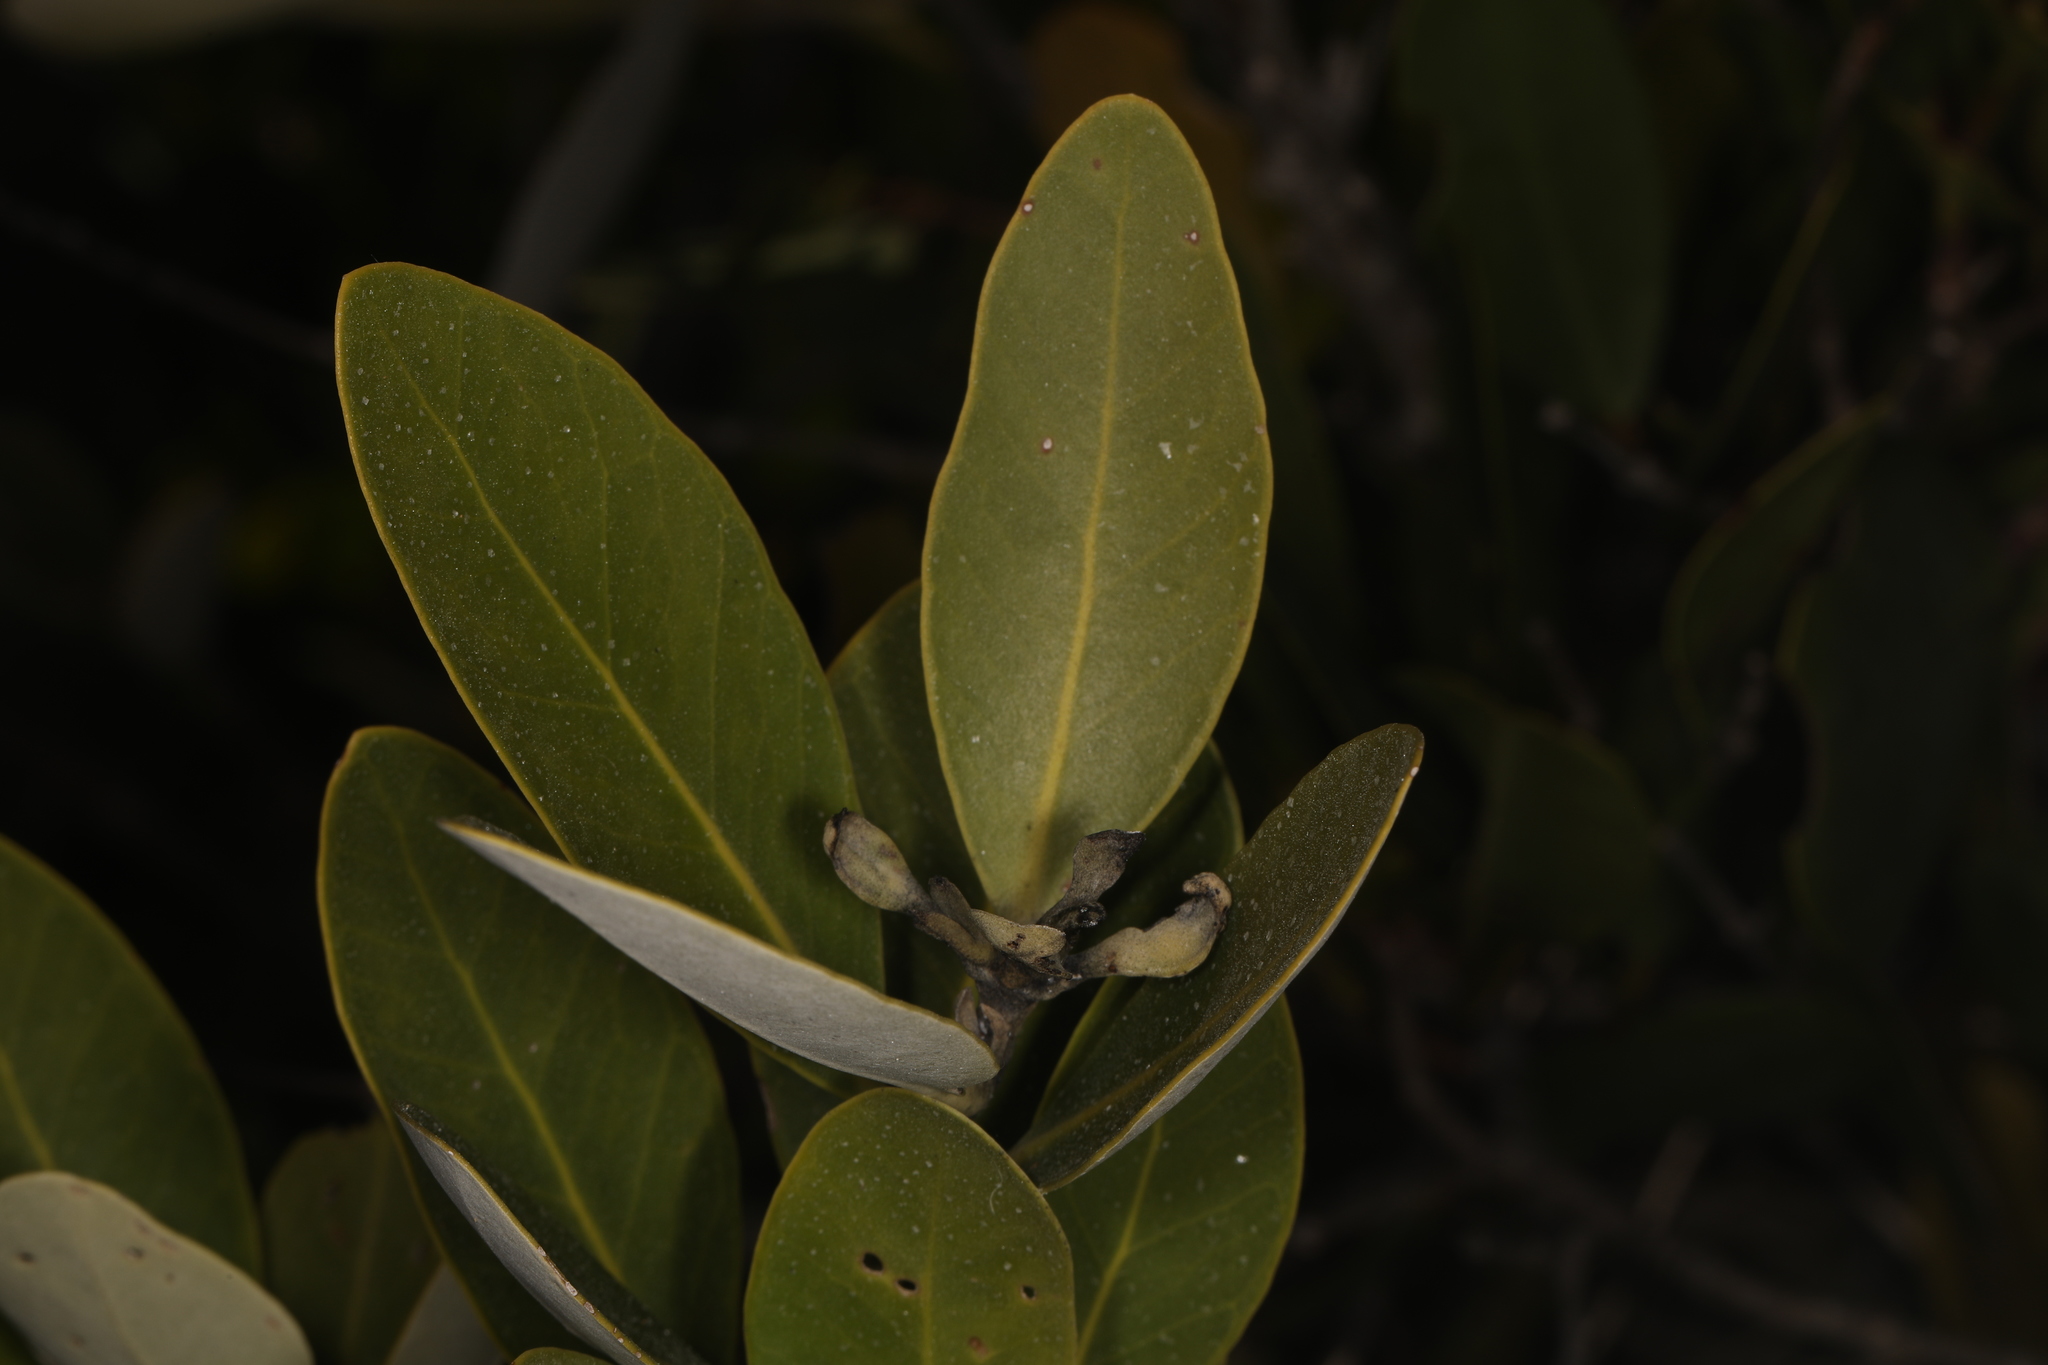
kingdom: Plantae
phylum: Tracheophyta
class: Magnoliopsida
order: Lamiales
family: Acanthaceae
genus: Avicennia
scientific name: Avicennia germinans
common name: Black mangrove
